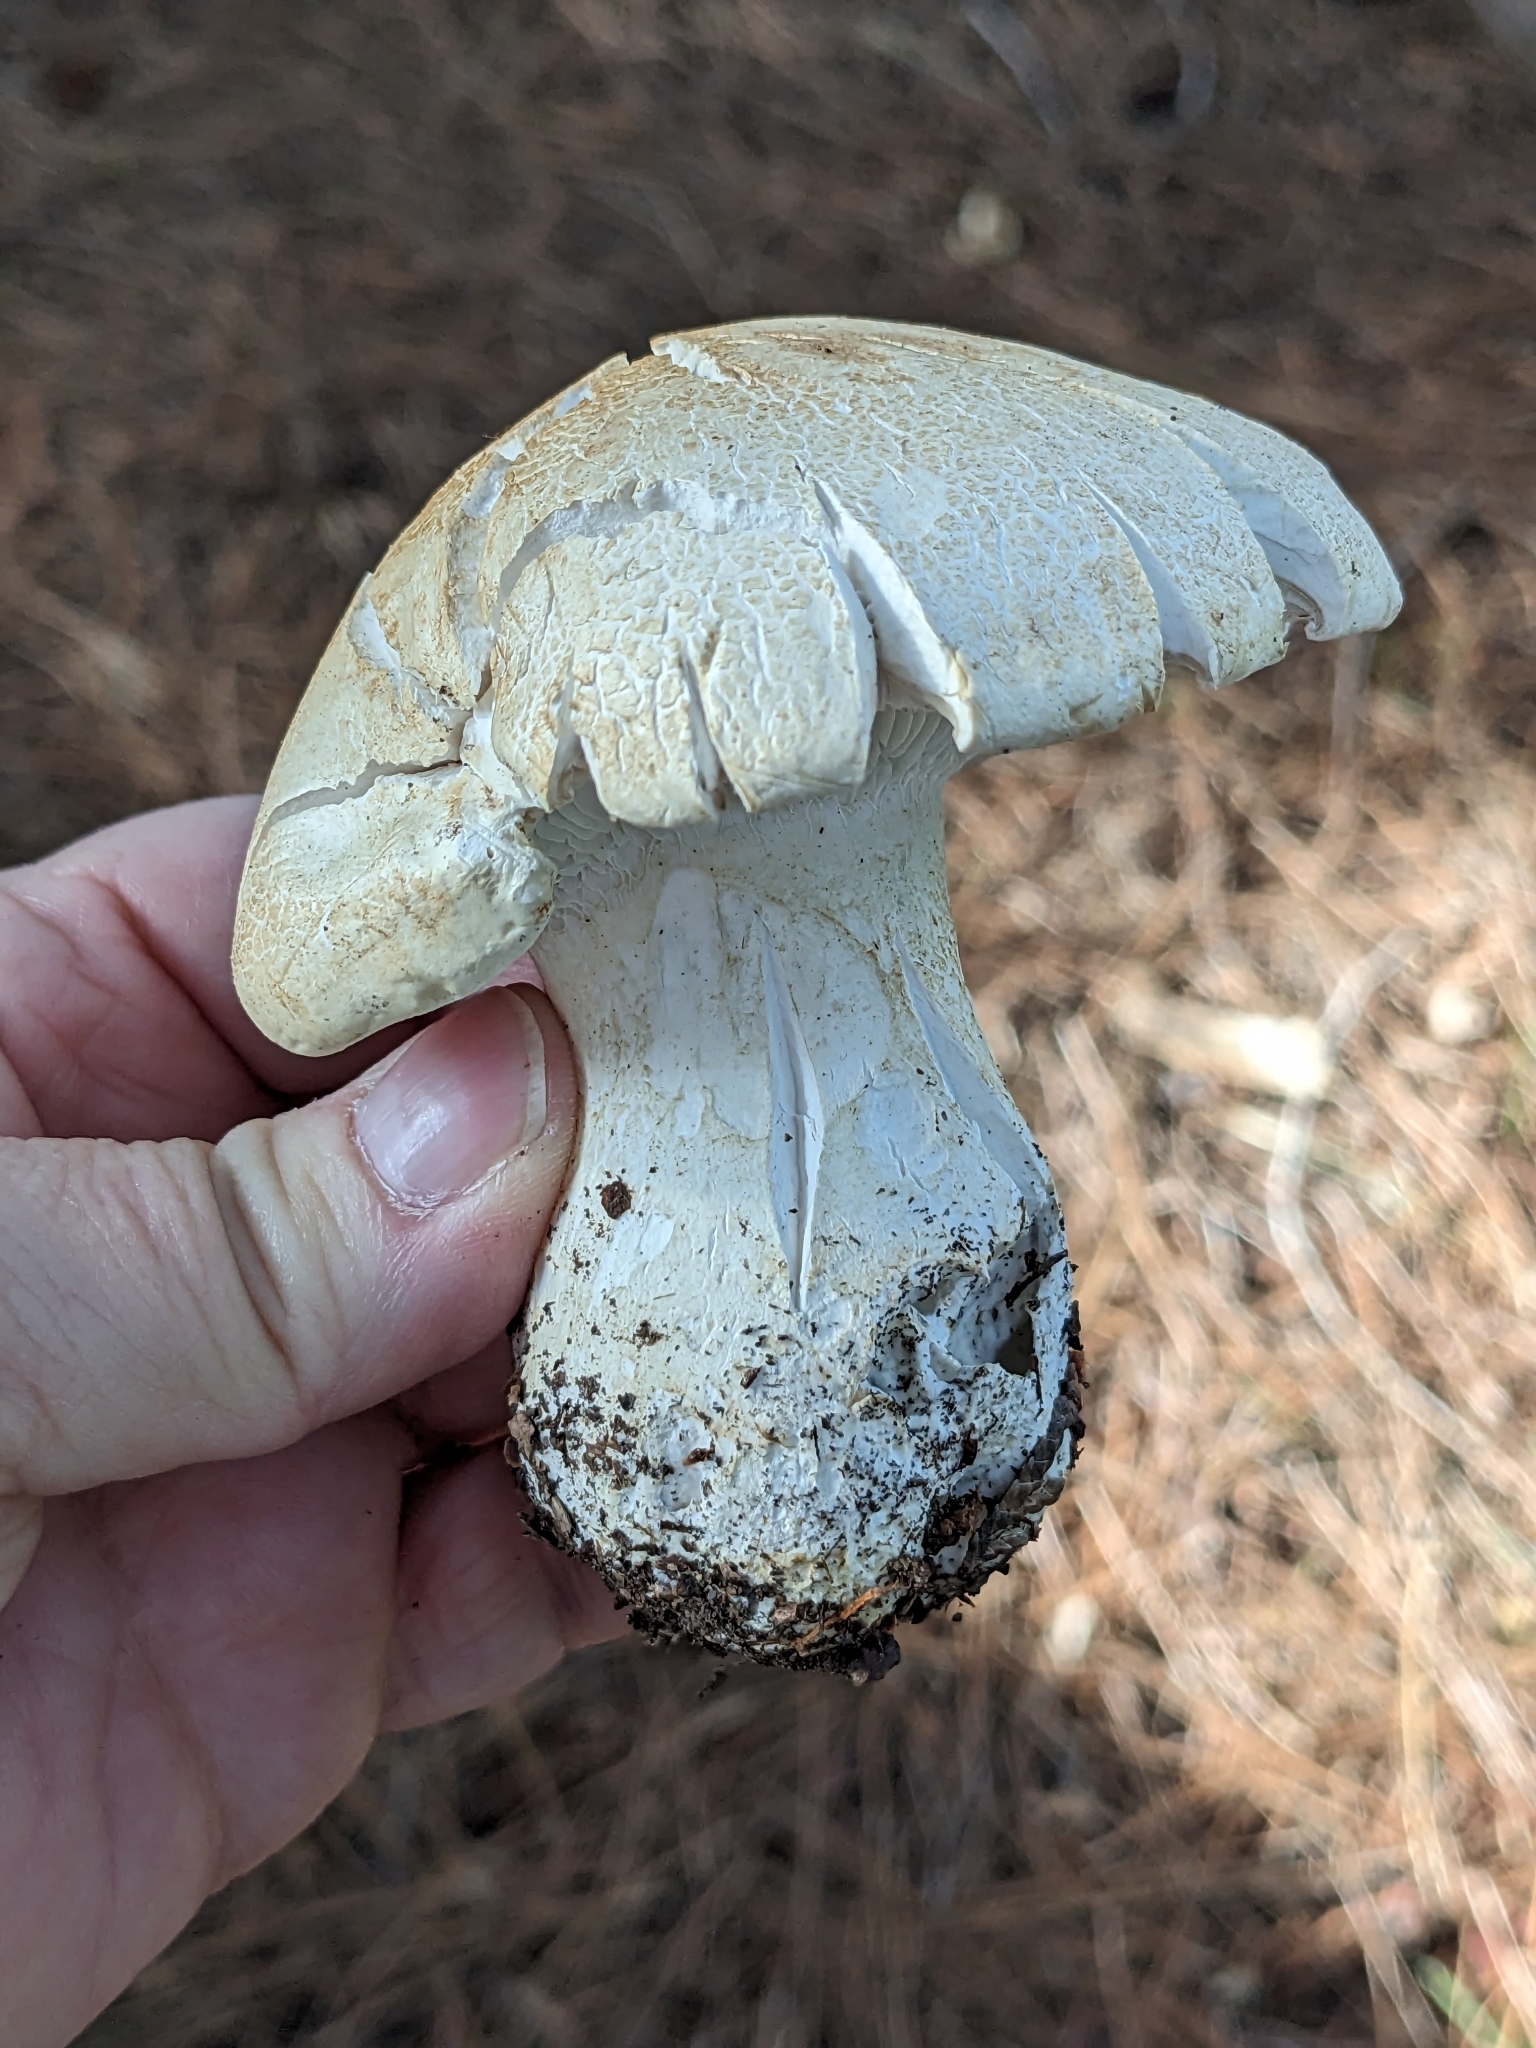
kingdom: Fungi
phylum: Basidiomycota
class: Agaricomycetes
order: Agaricales
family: Tricholomataceae
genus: Leucopaxillus
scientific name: Leucopaxillus albissimus
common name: Large white leucopax
